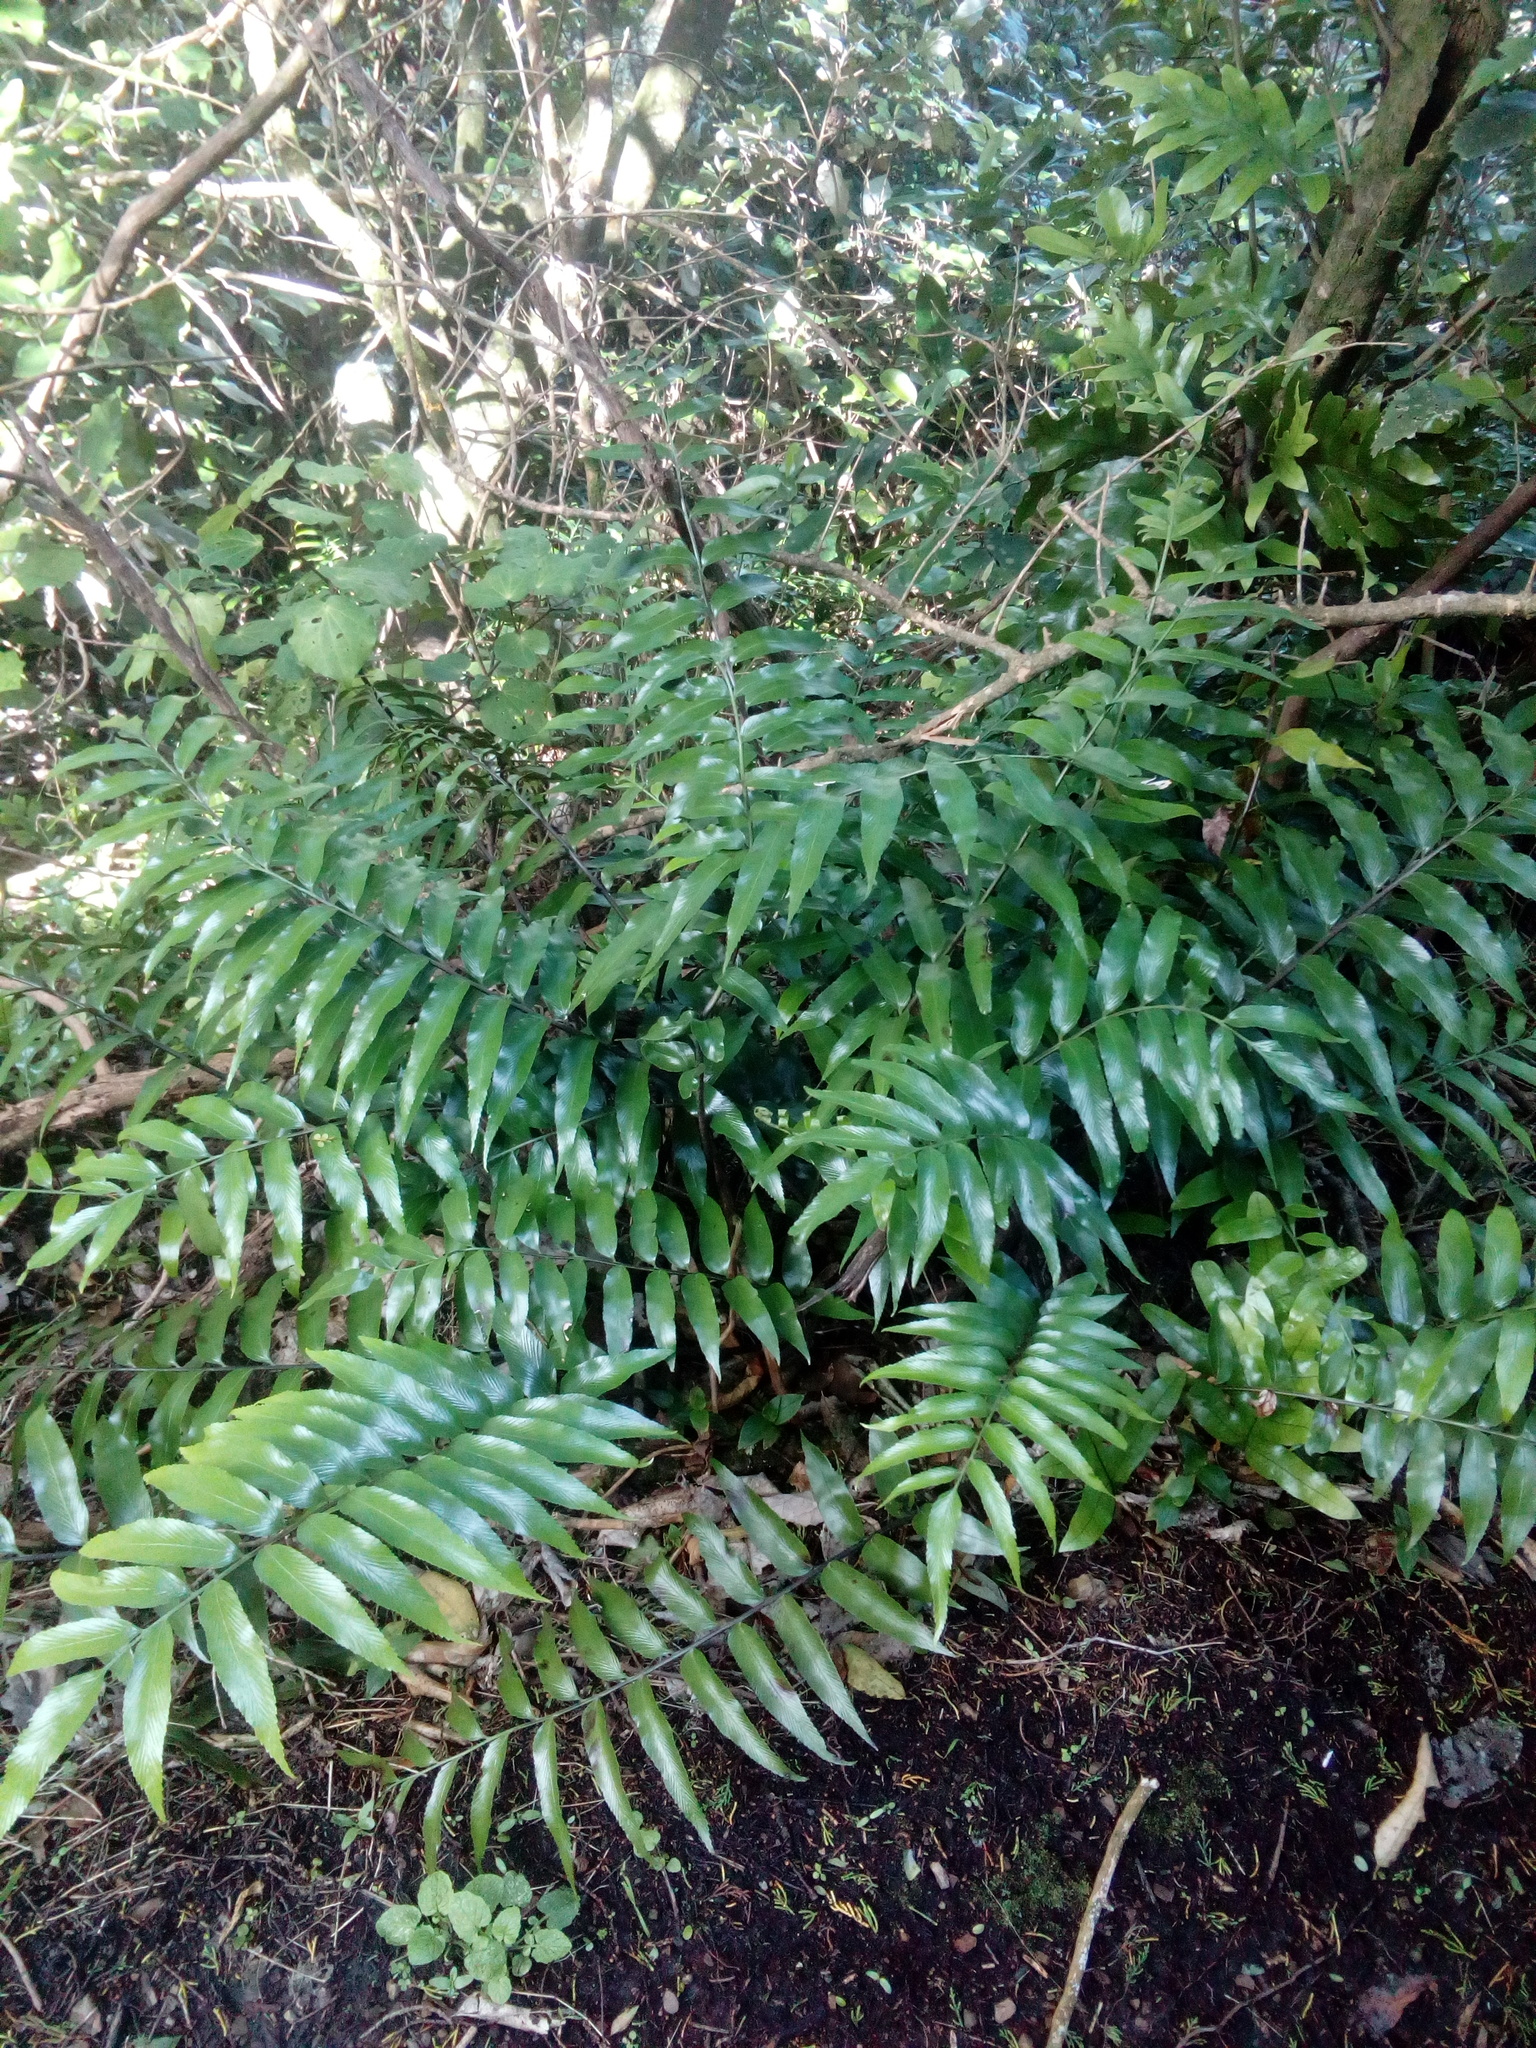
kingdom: Plantae
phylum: Tracheophyta
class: Polypodiopsida
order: Polypodiales
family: Aspleniaceae
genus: Asplenium
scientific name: Asplenium oblongifolium
